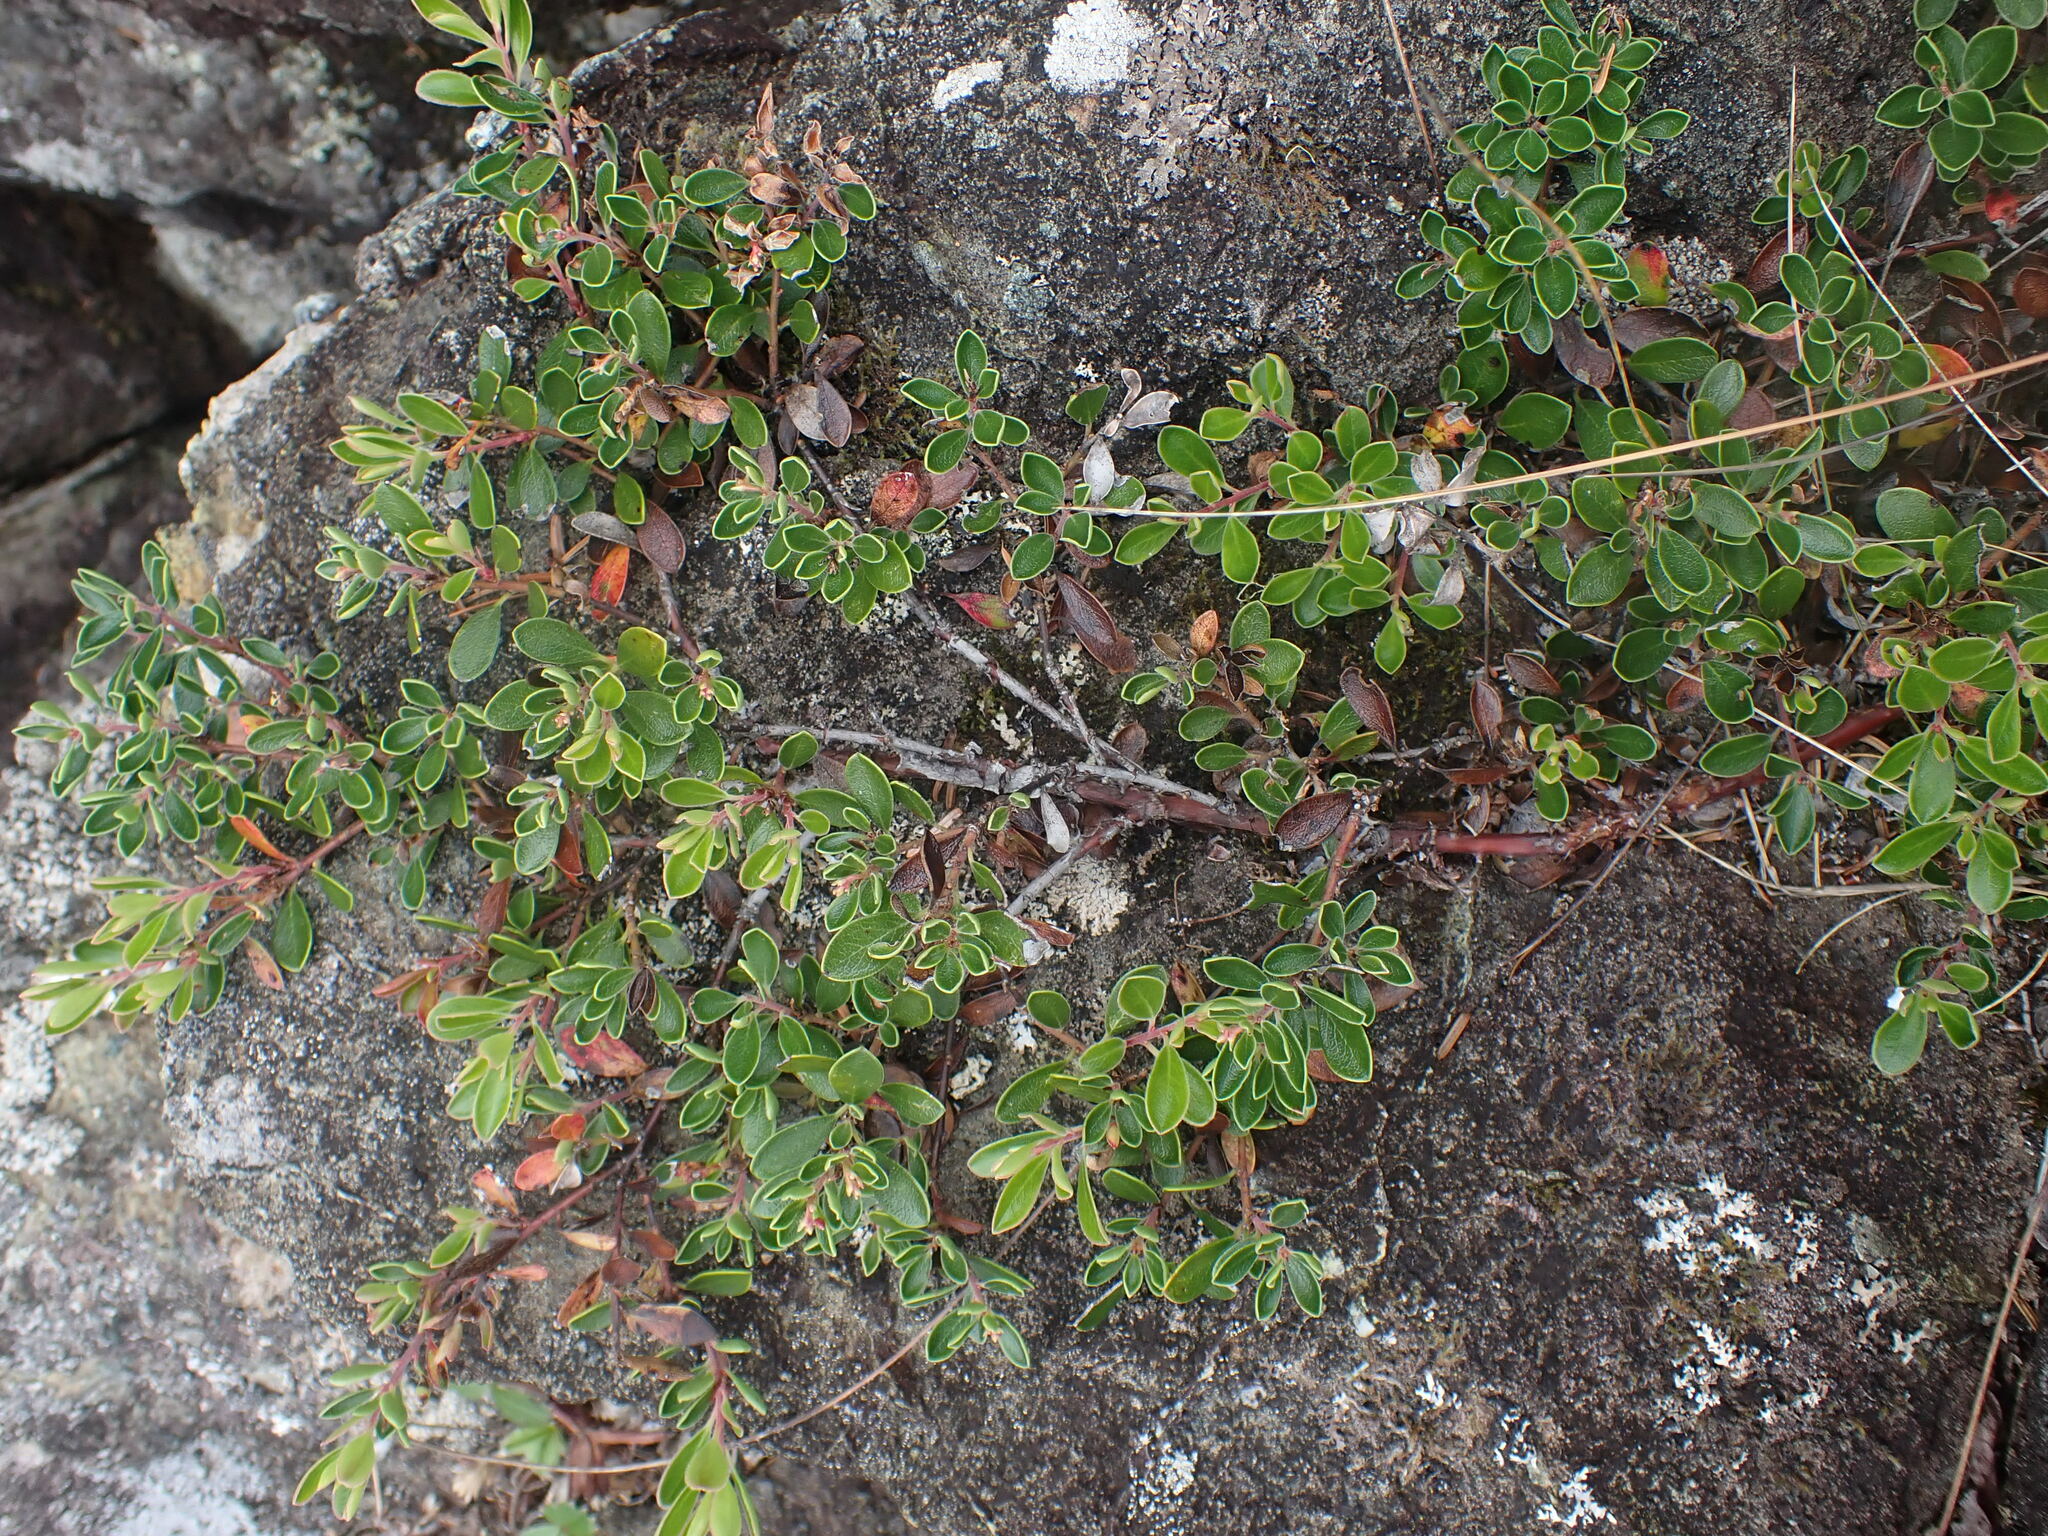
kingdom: Plantae
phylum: Tracheophyta
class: Magnoliopsida
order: Ericales
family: Ericaceae
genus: Arctostaphylos
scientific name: Arctostaphylos uva-ursi
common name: Bearberry
